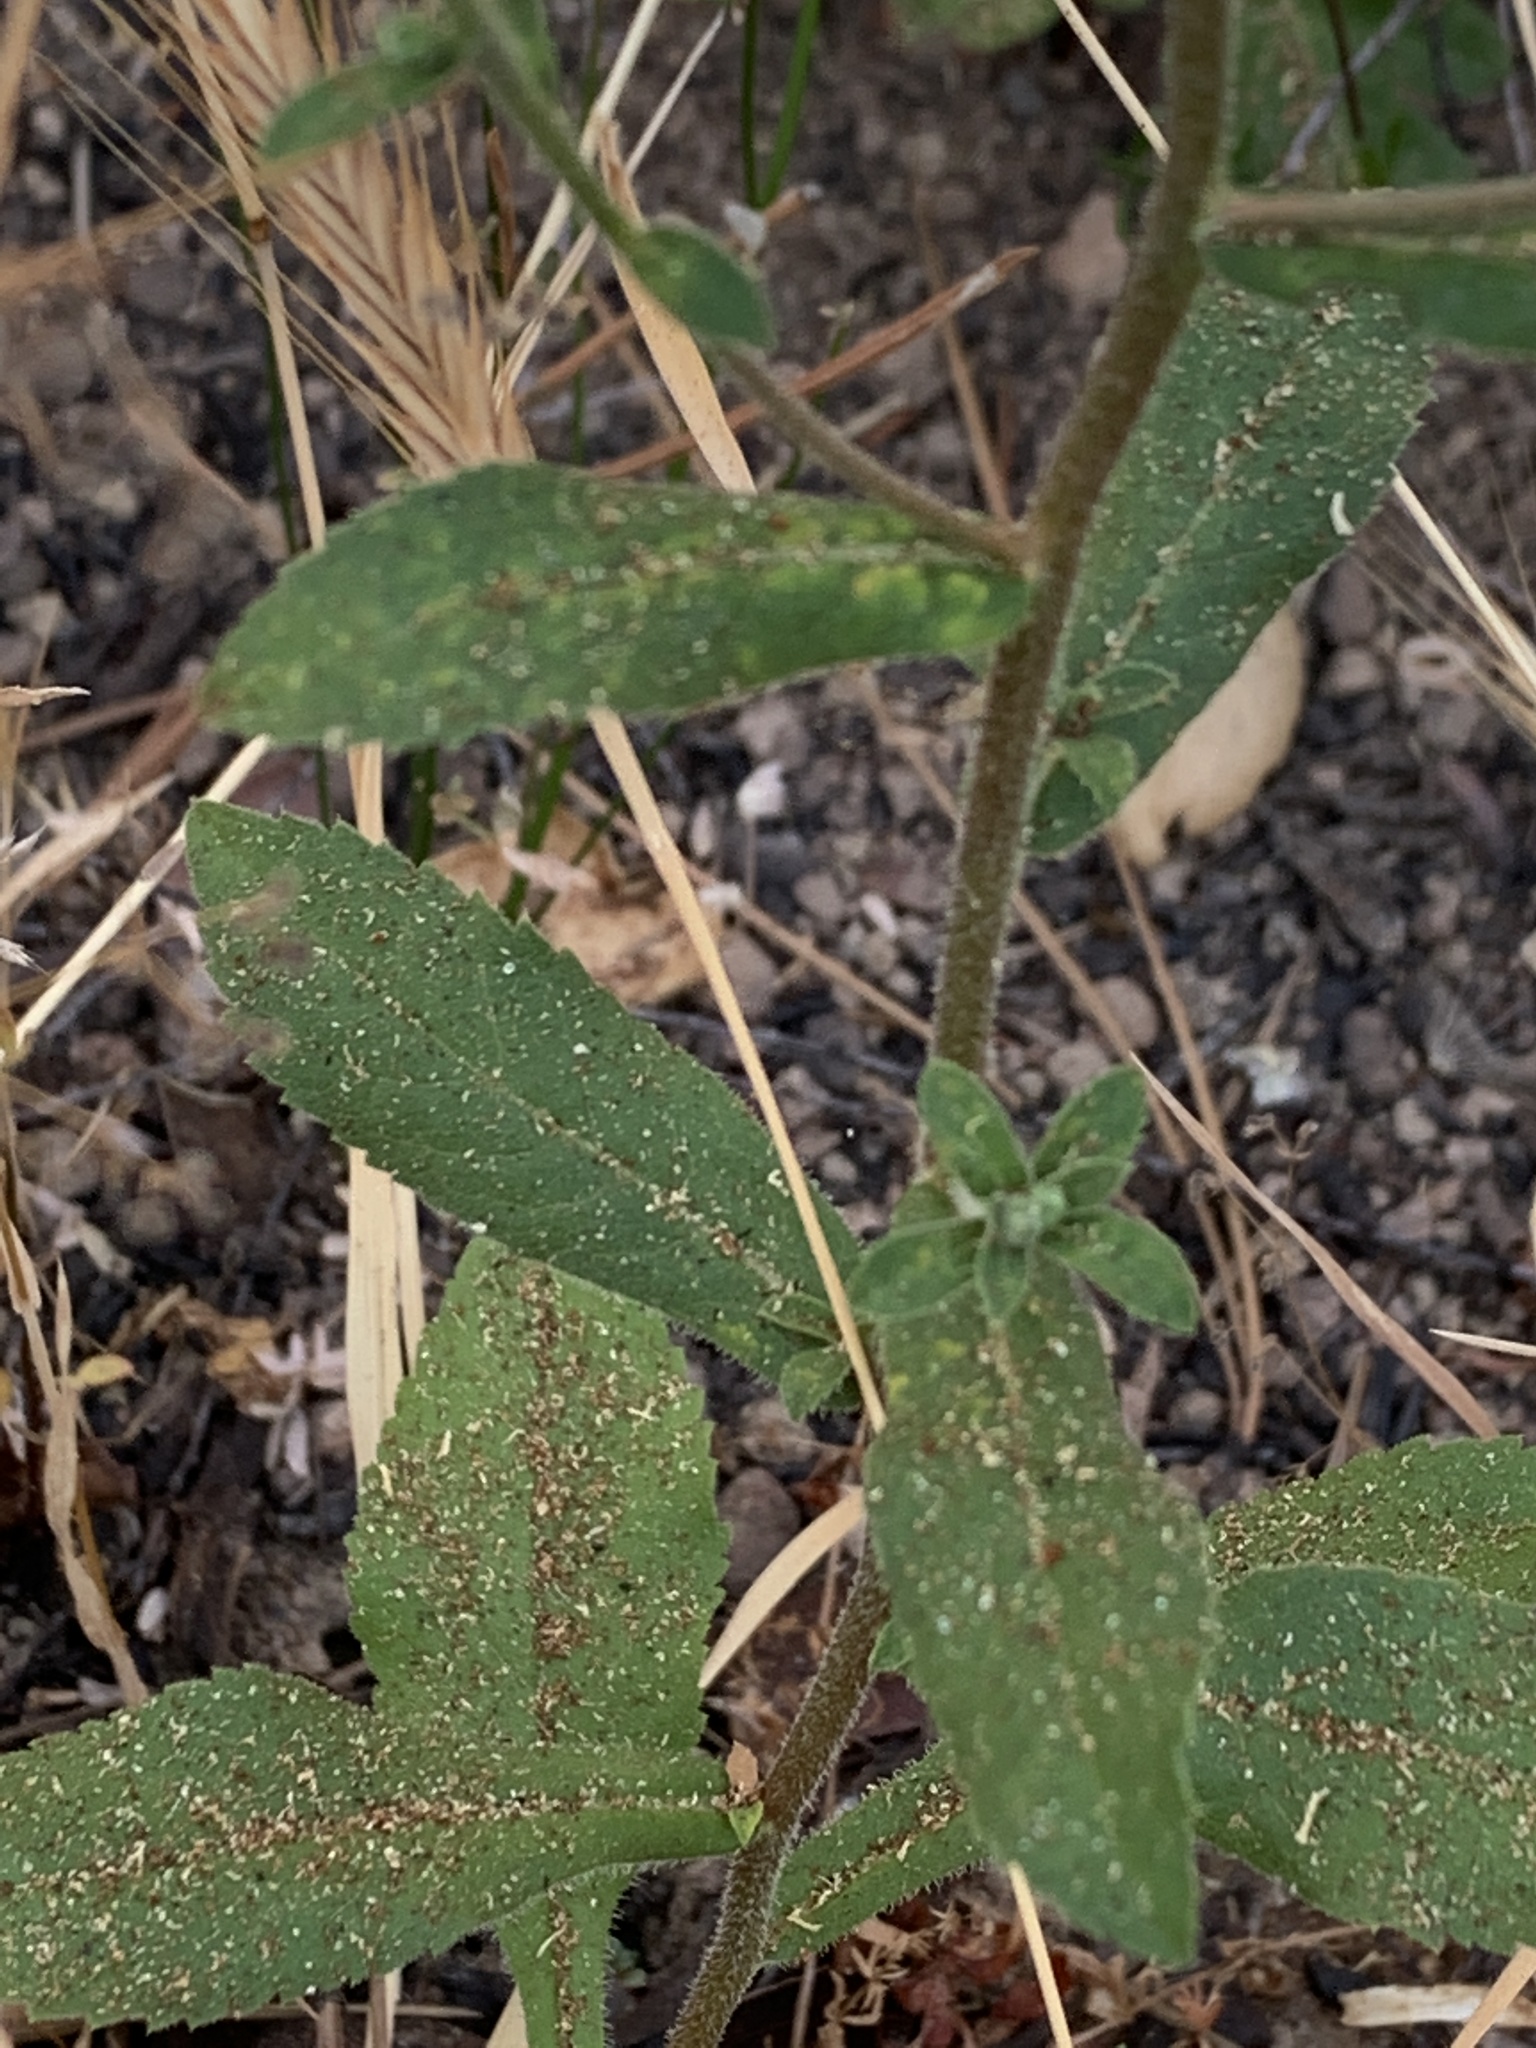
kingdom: Plantae
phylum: Tracheophyta
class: Magnoliopsida
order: Asterales
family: Asteraceae
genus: Eurybia
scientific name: Eurybia radulina
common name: Rough-leaved aster
